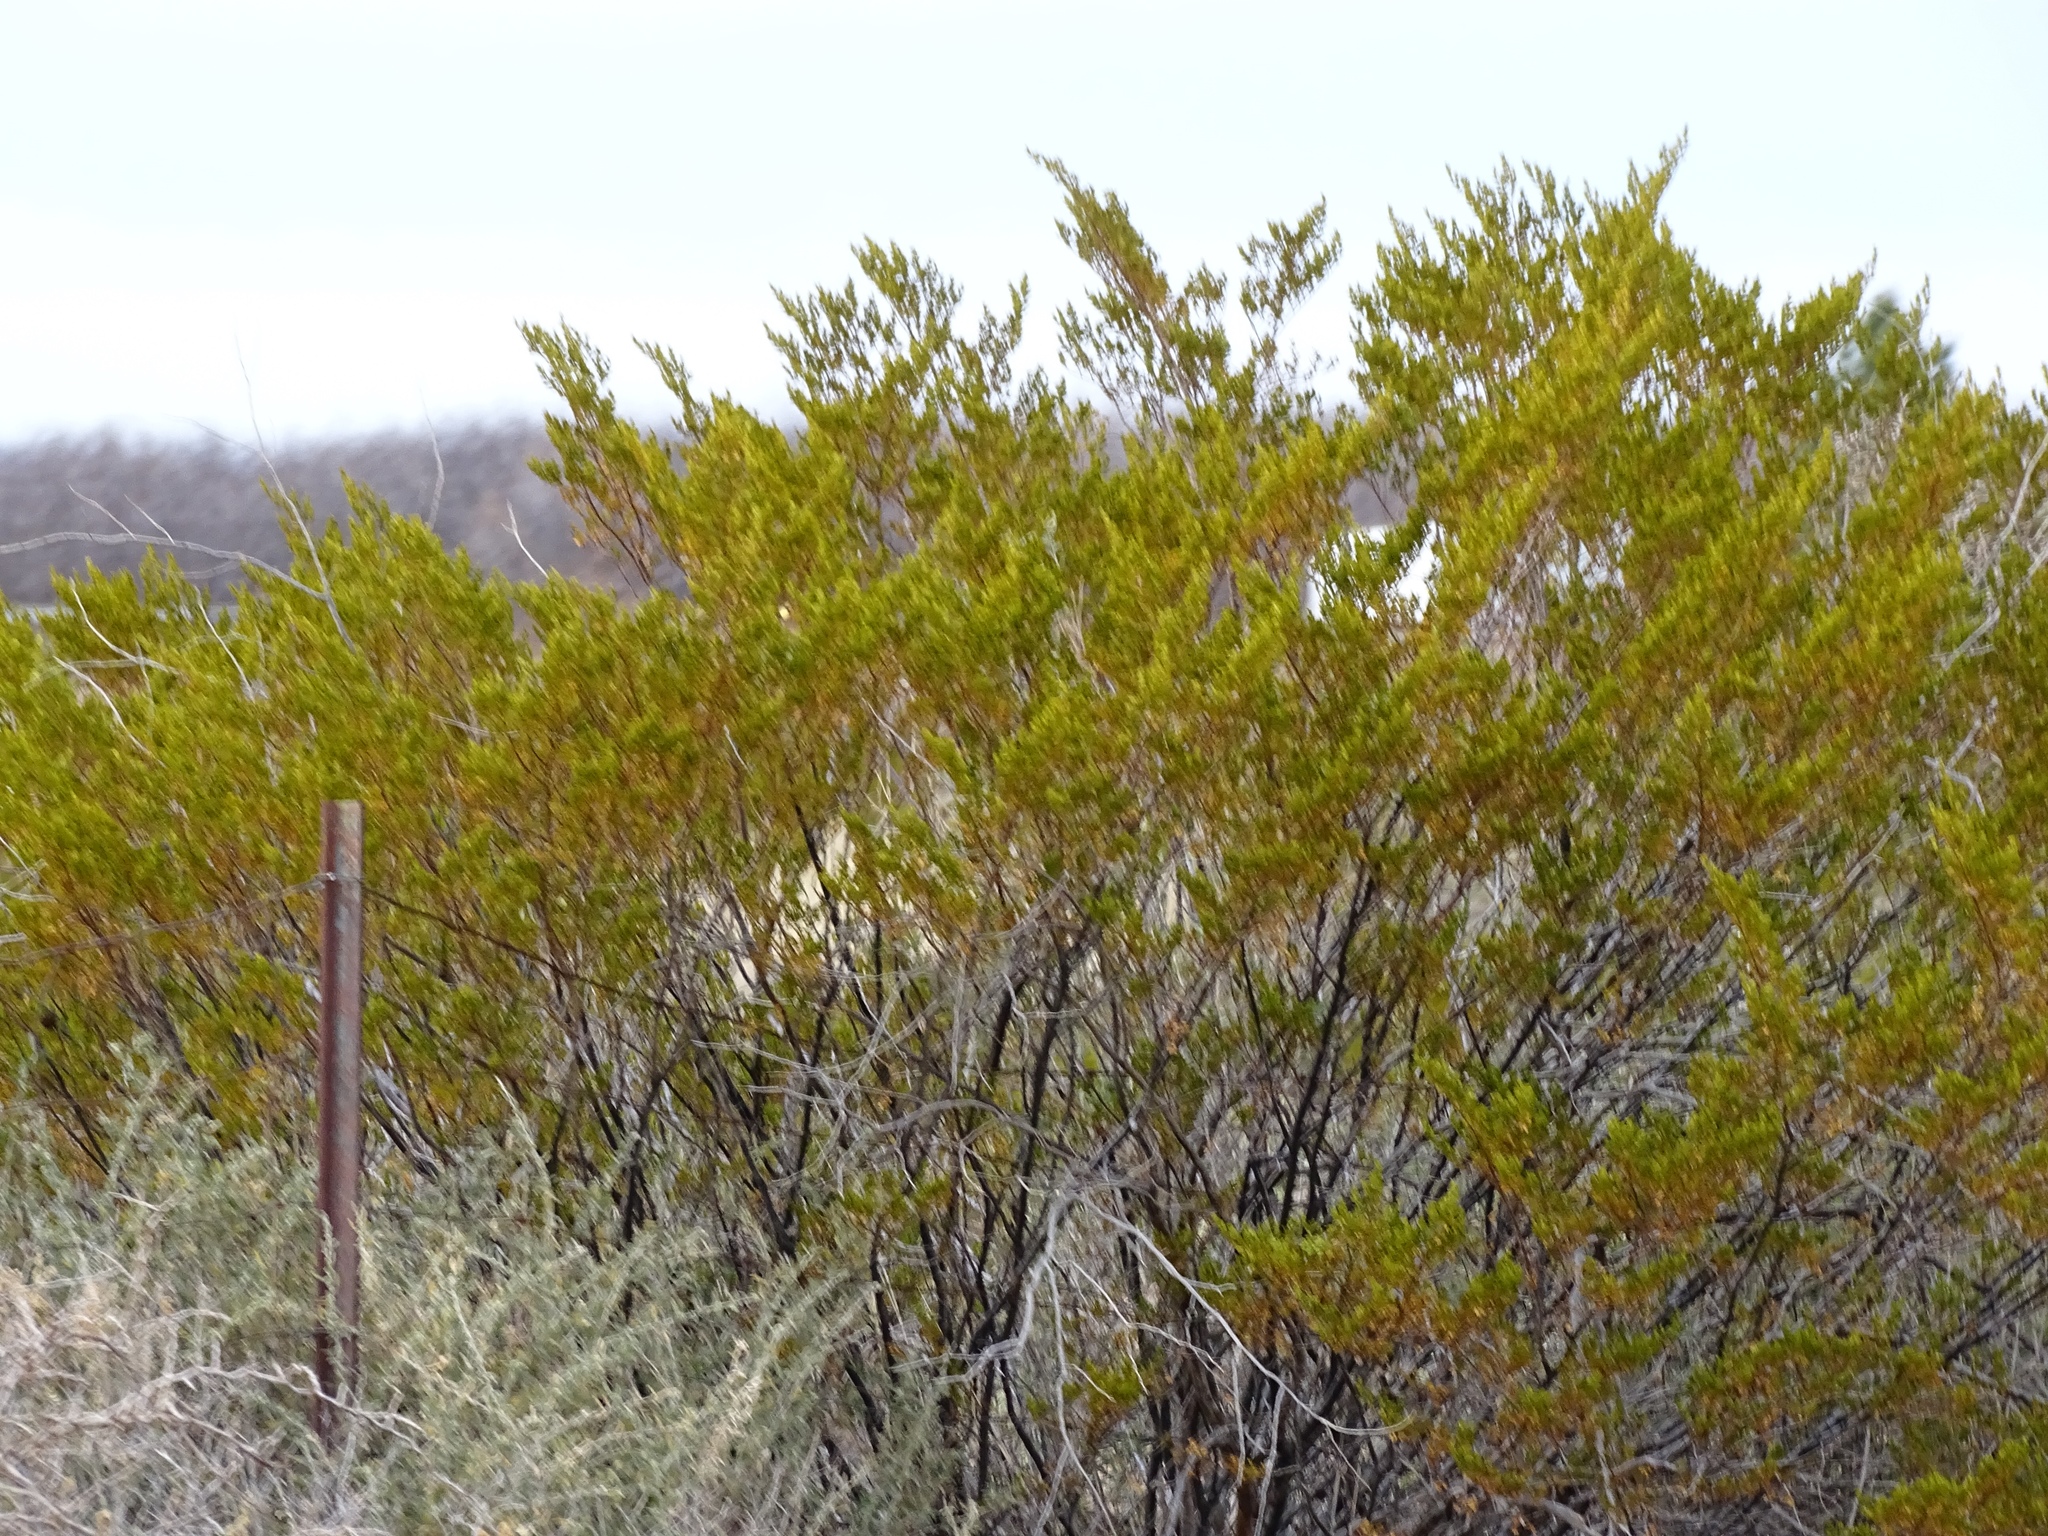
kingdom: Plantae
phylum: Tracheophyta
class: Magnoliopsida
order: Zygophyllales
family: Zygophyllaceae
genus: Larrea
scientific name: Larrea tridentata
